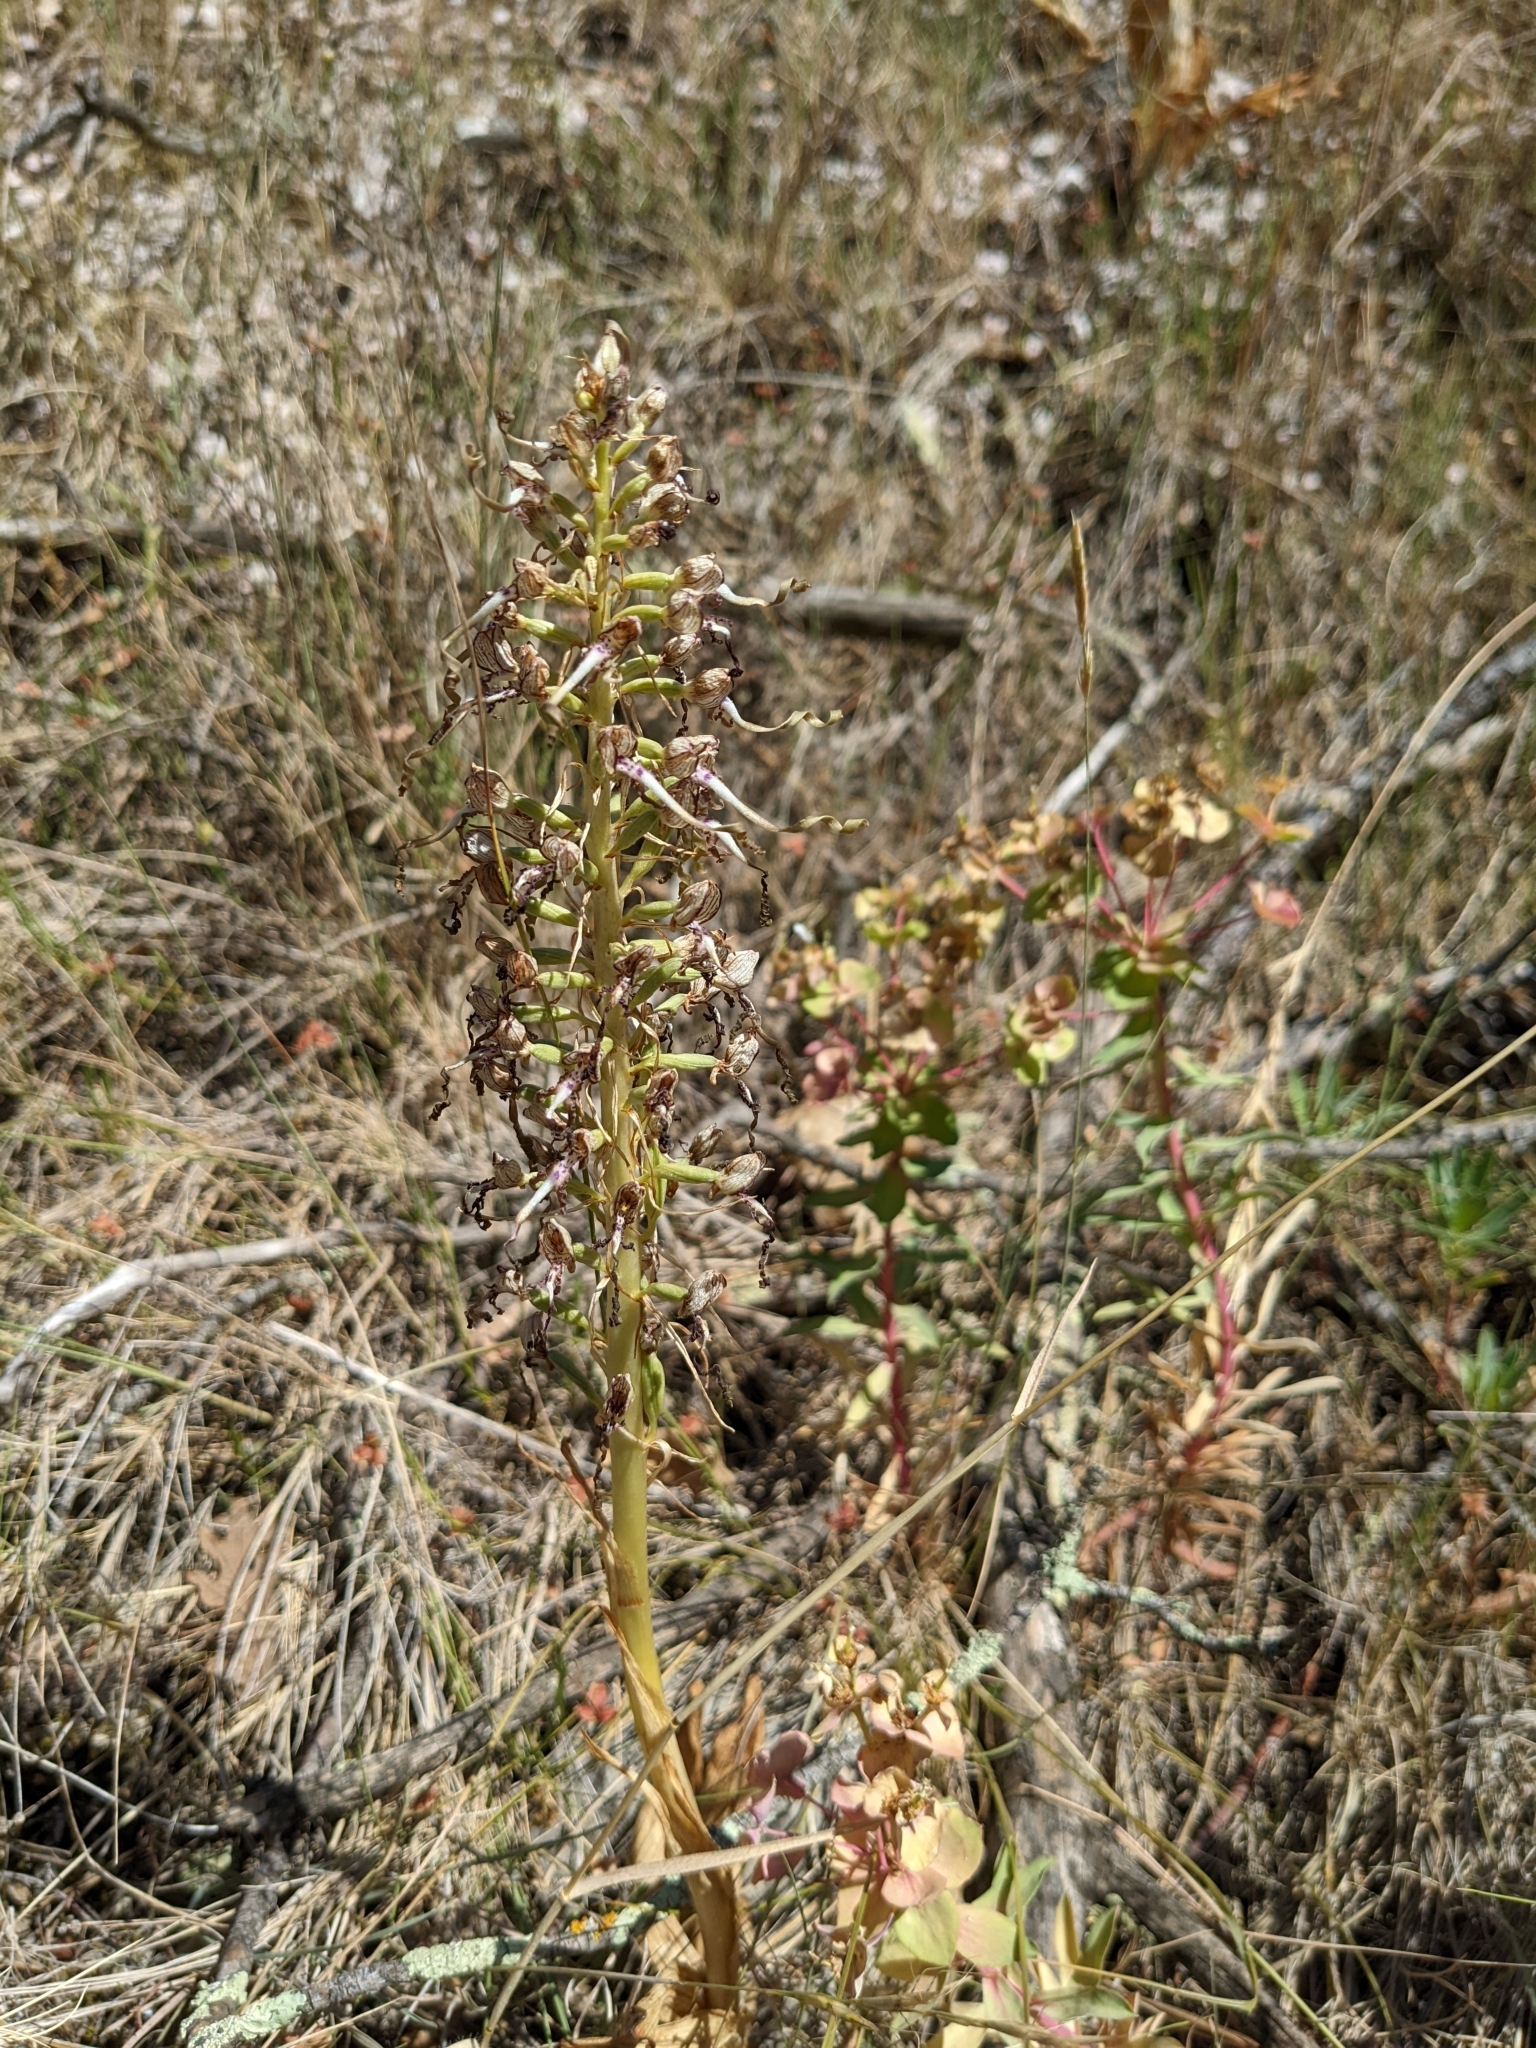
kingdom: Plantae
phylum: Tracheophyta
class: Liliopsida
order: Asparagales
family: Orchidaceae
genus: Himantoglossum
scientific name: Himantoglossum hircinum
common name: Lizard orchid
